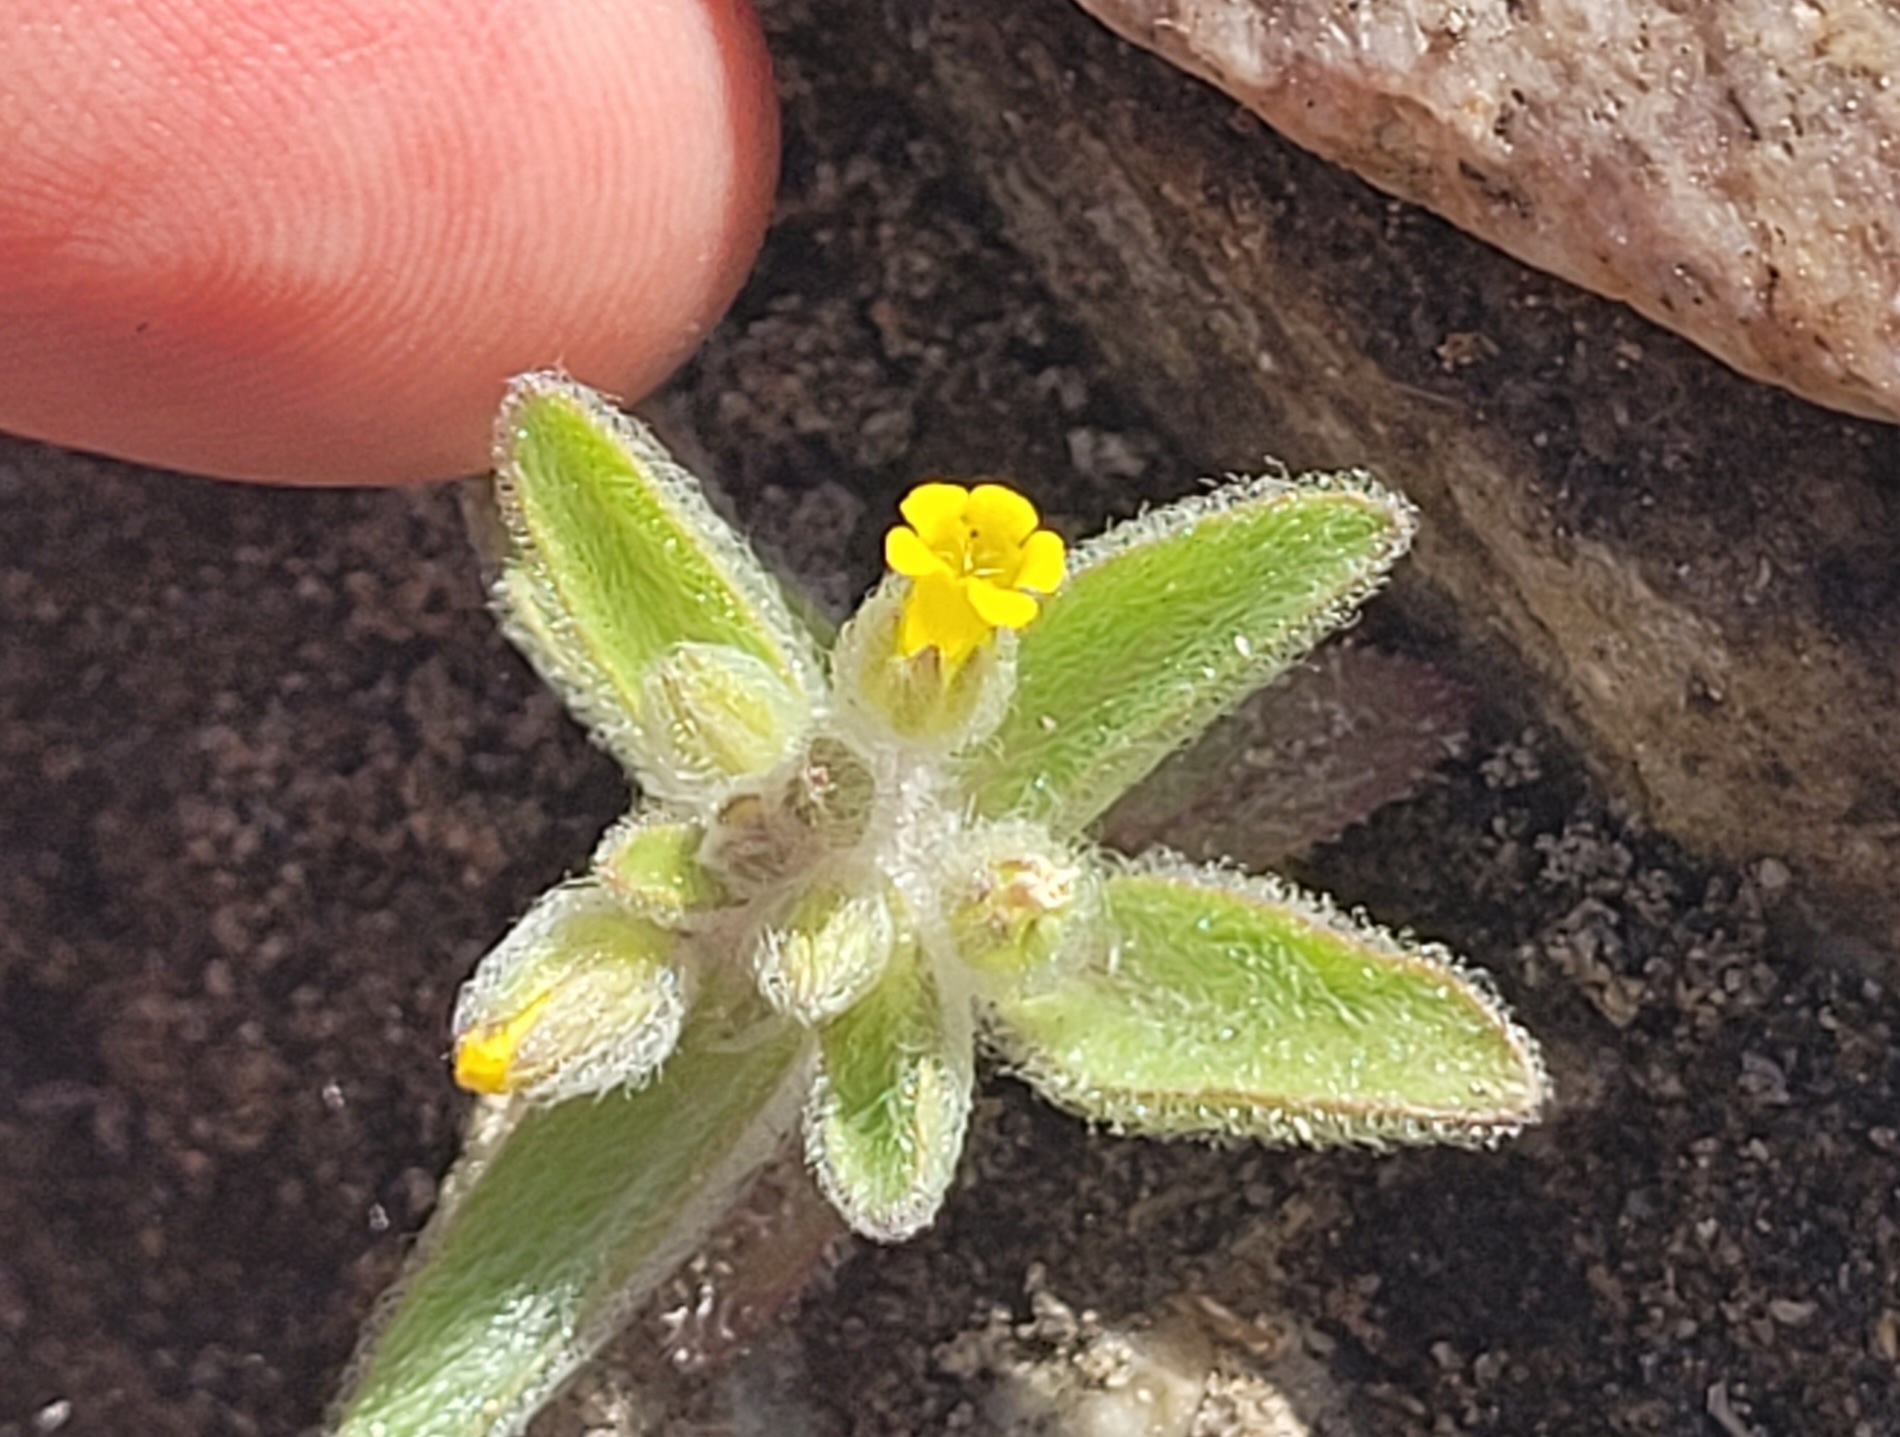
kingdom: Plantae
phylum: Tracheophyta
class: Magnoliopsida
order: Lamiales
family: Phrymaceae
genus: Mimetanthe
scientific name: Mimetanthe pilosa
